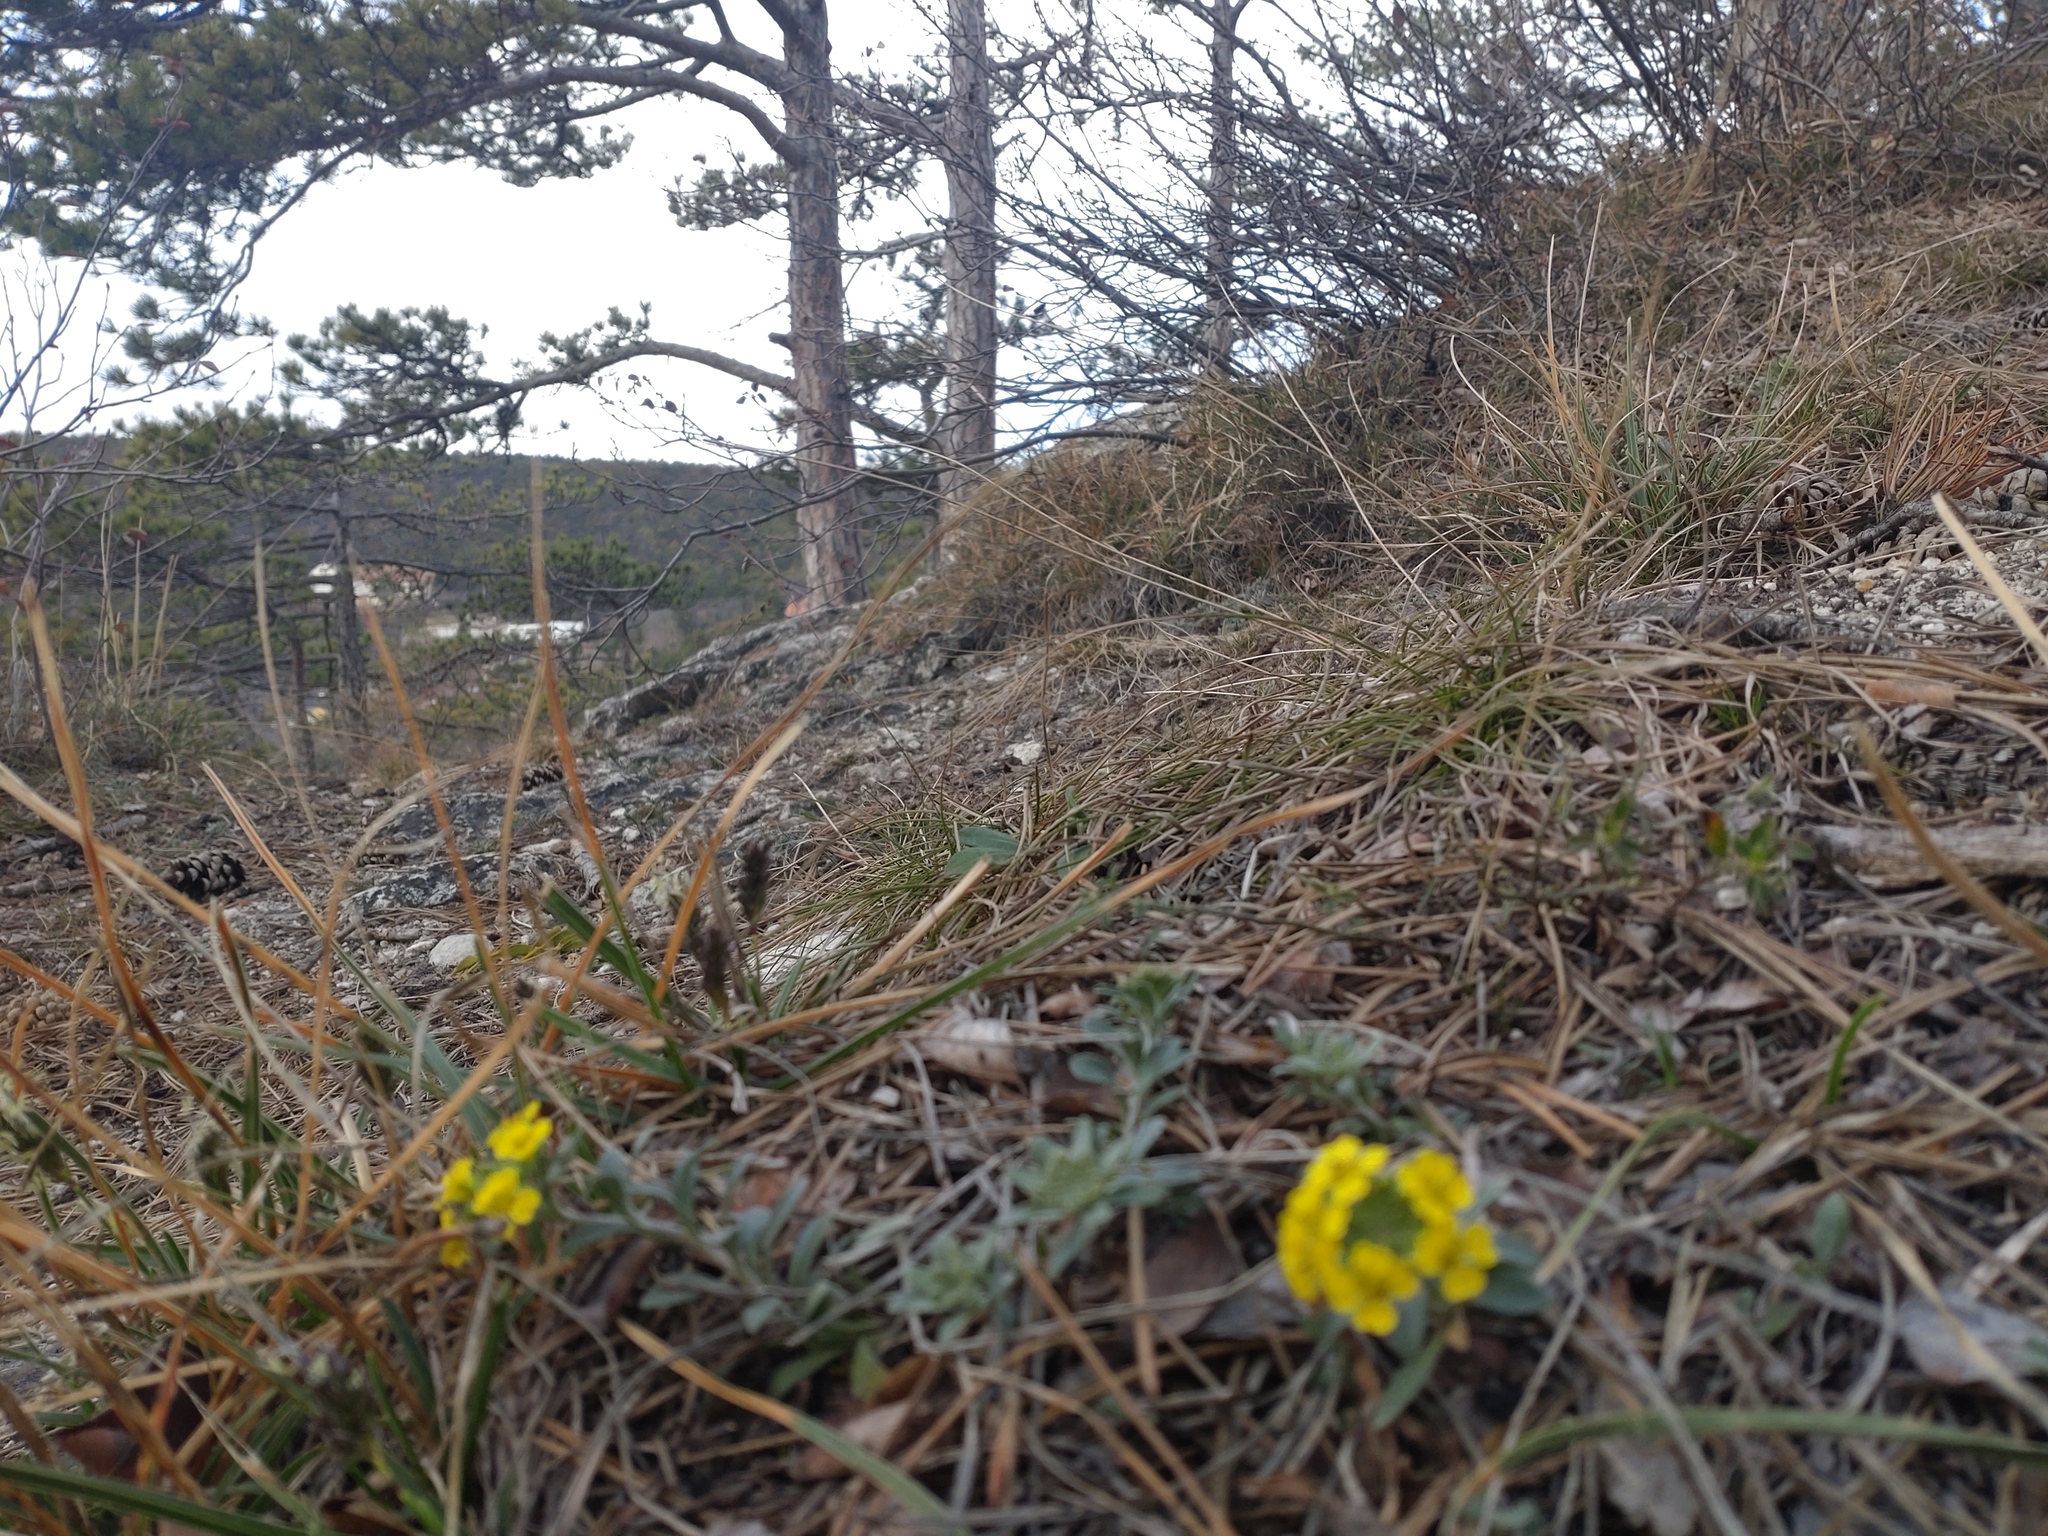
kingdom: Plantae
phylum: Tracheophyta
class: Magnoliopsida
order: Brassicales
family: Brassicaceae
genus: Alyssum
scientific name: Alyssum gmelinii
